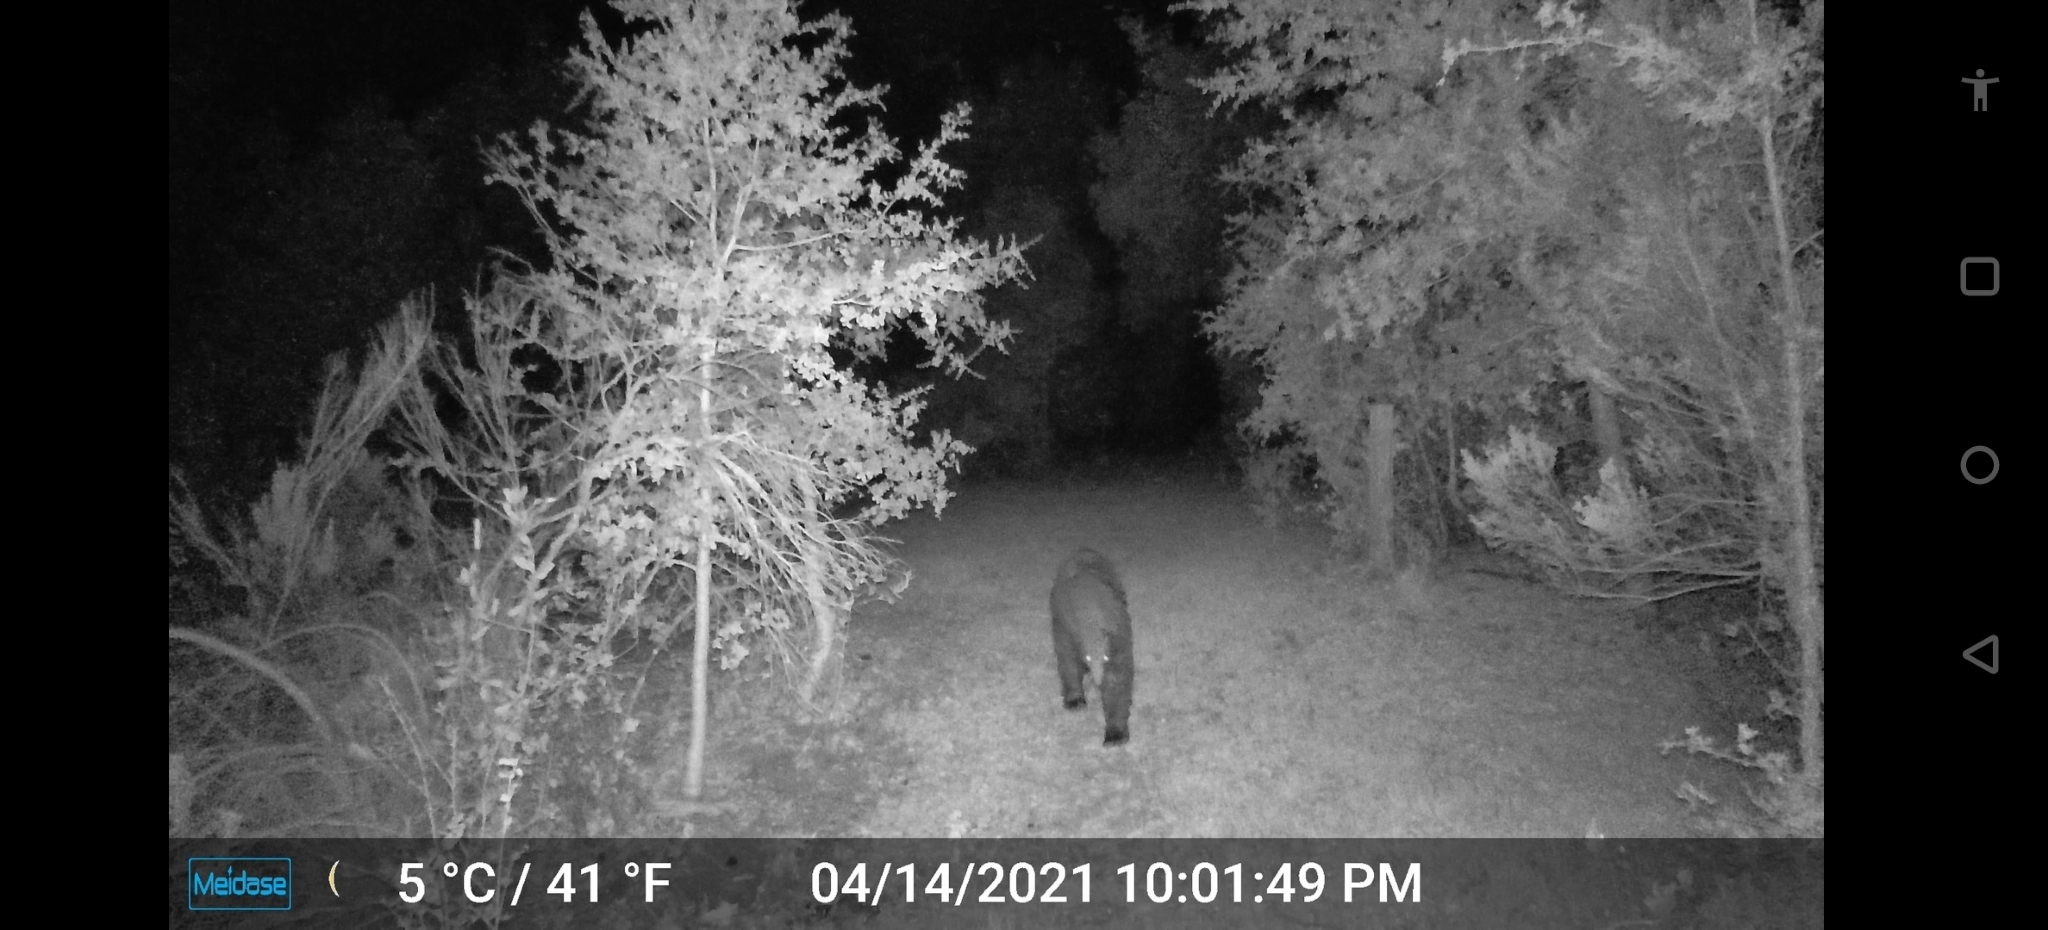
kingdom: Animalia
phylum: Chordata
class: Mammalia
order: Carnivora
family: Ursidae
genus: Ursus
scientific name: Ursus americanus
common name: American black bear
